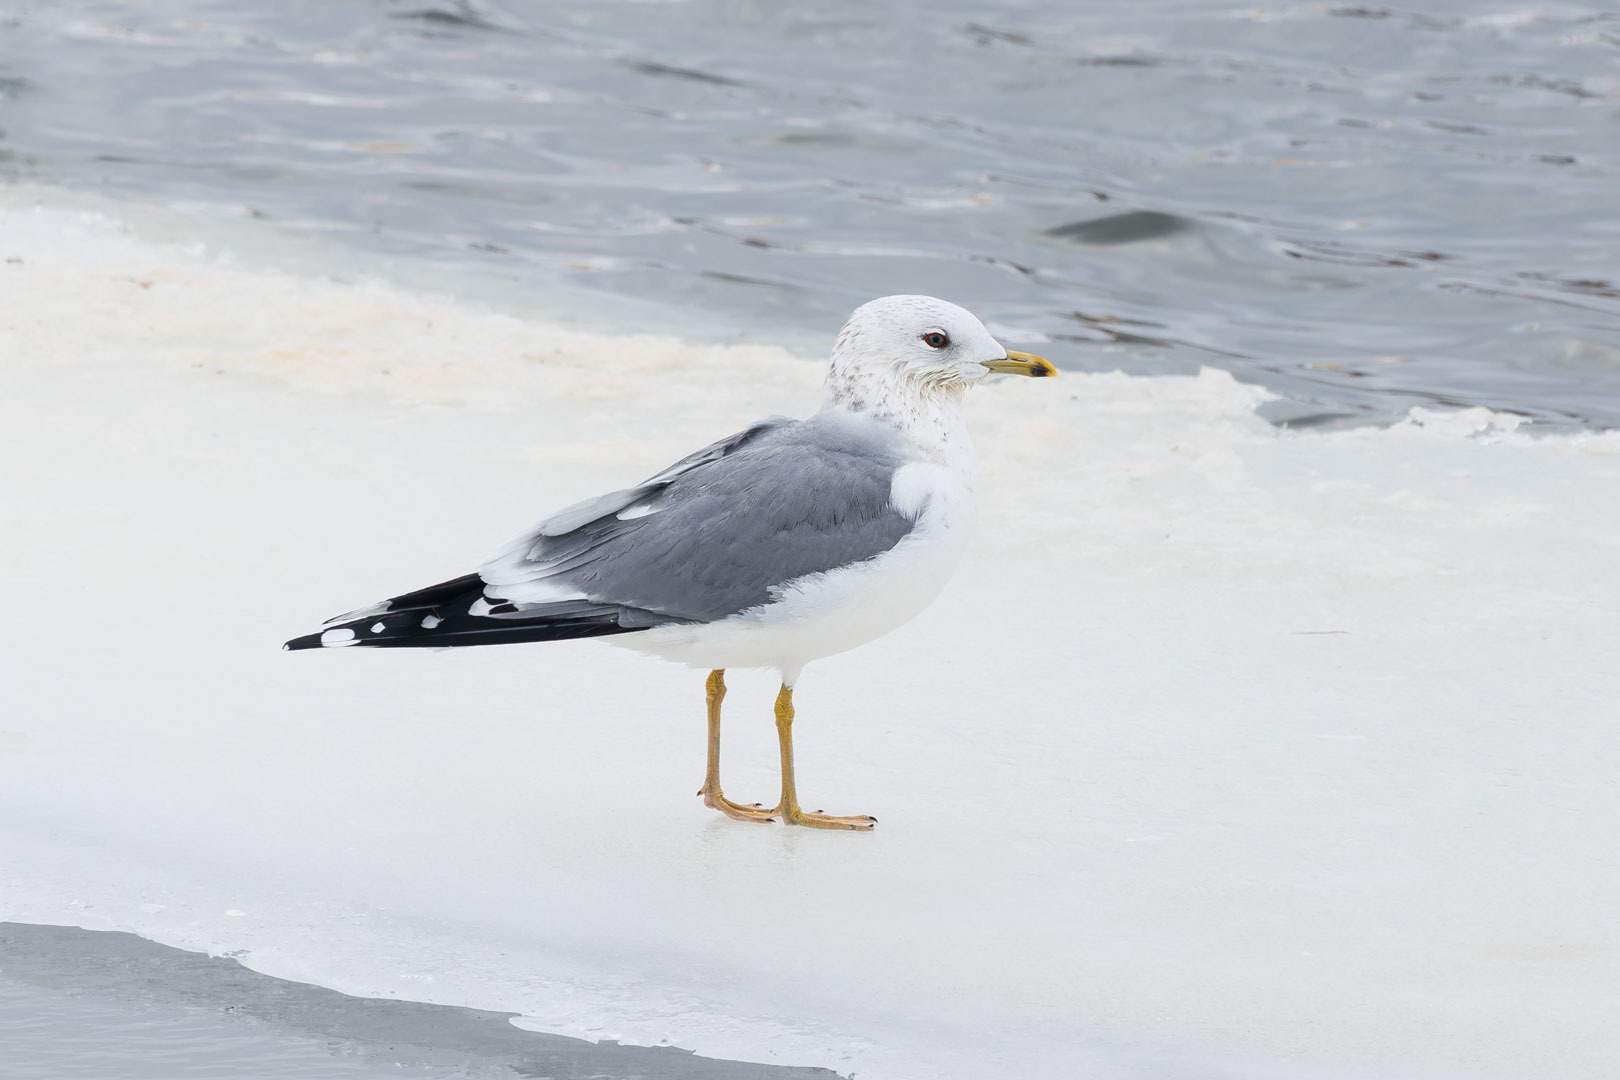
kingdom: Animalia
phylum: Chordata
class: Aves
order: Charadriiformes
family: Laridae
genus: Larus
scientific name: Larus canus
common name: Mew gull
